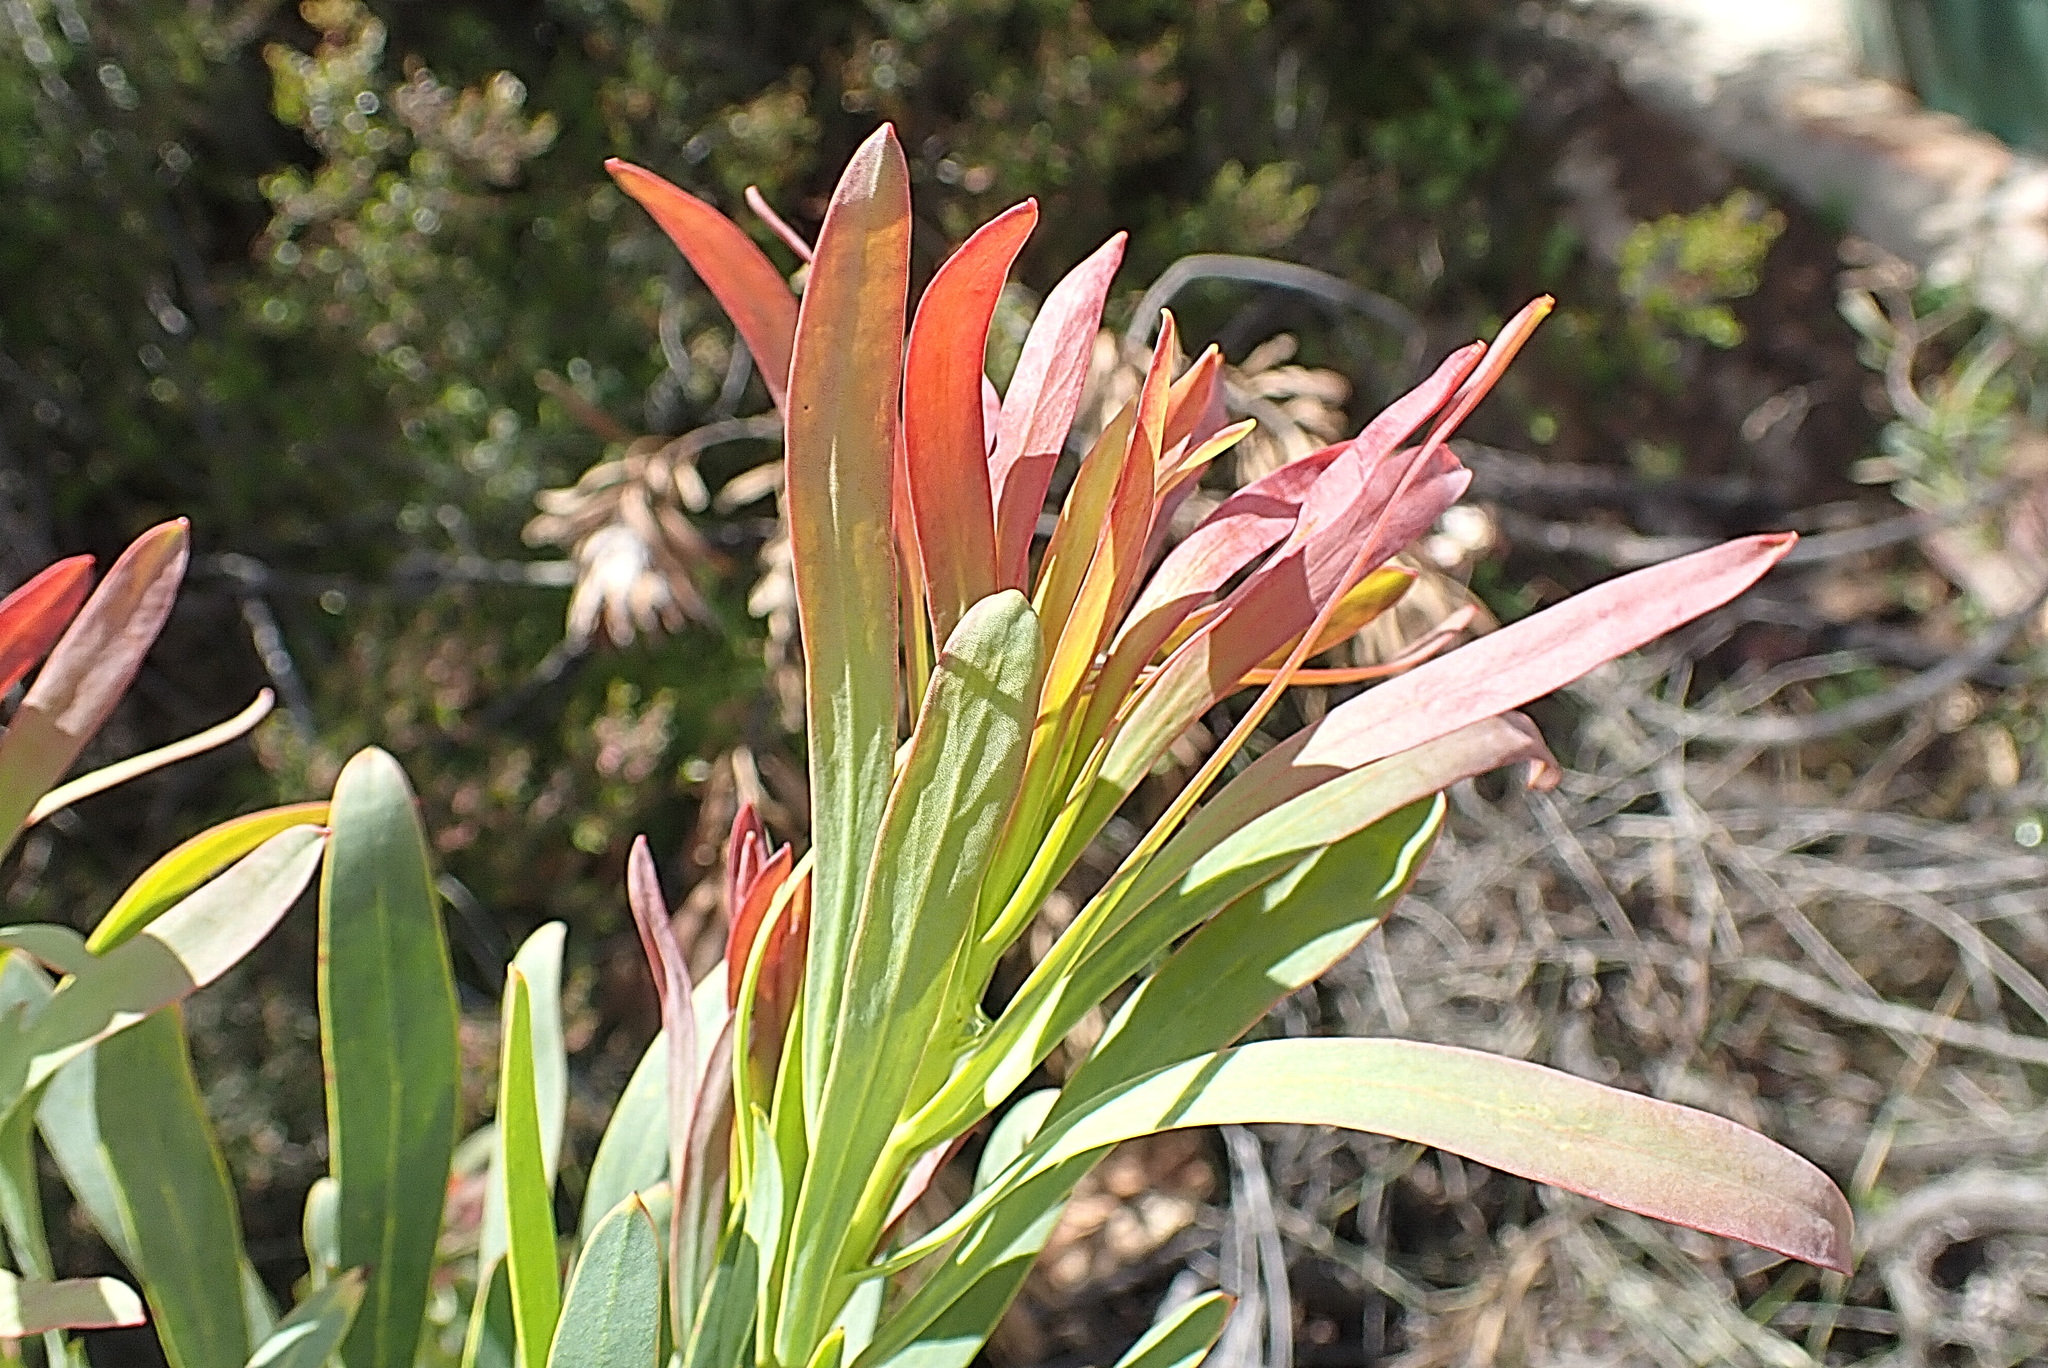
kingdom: Plantae
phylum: Tracheophyta
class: Magnoliopsida
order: Proteales
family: Proteaceae
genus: Protea
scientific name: Protea repens
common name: Sugarbush
